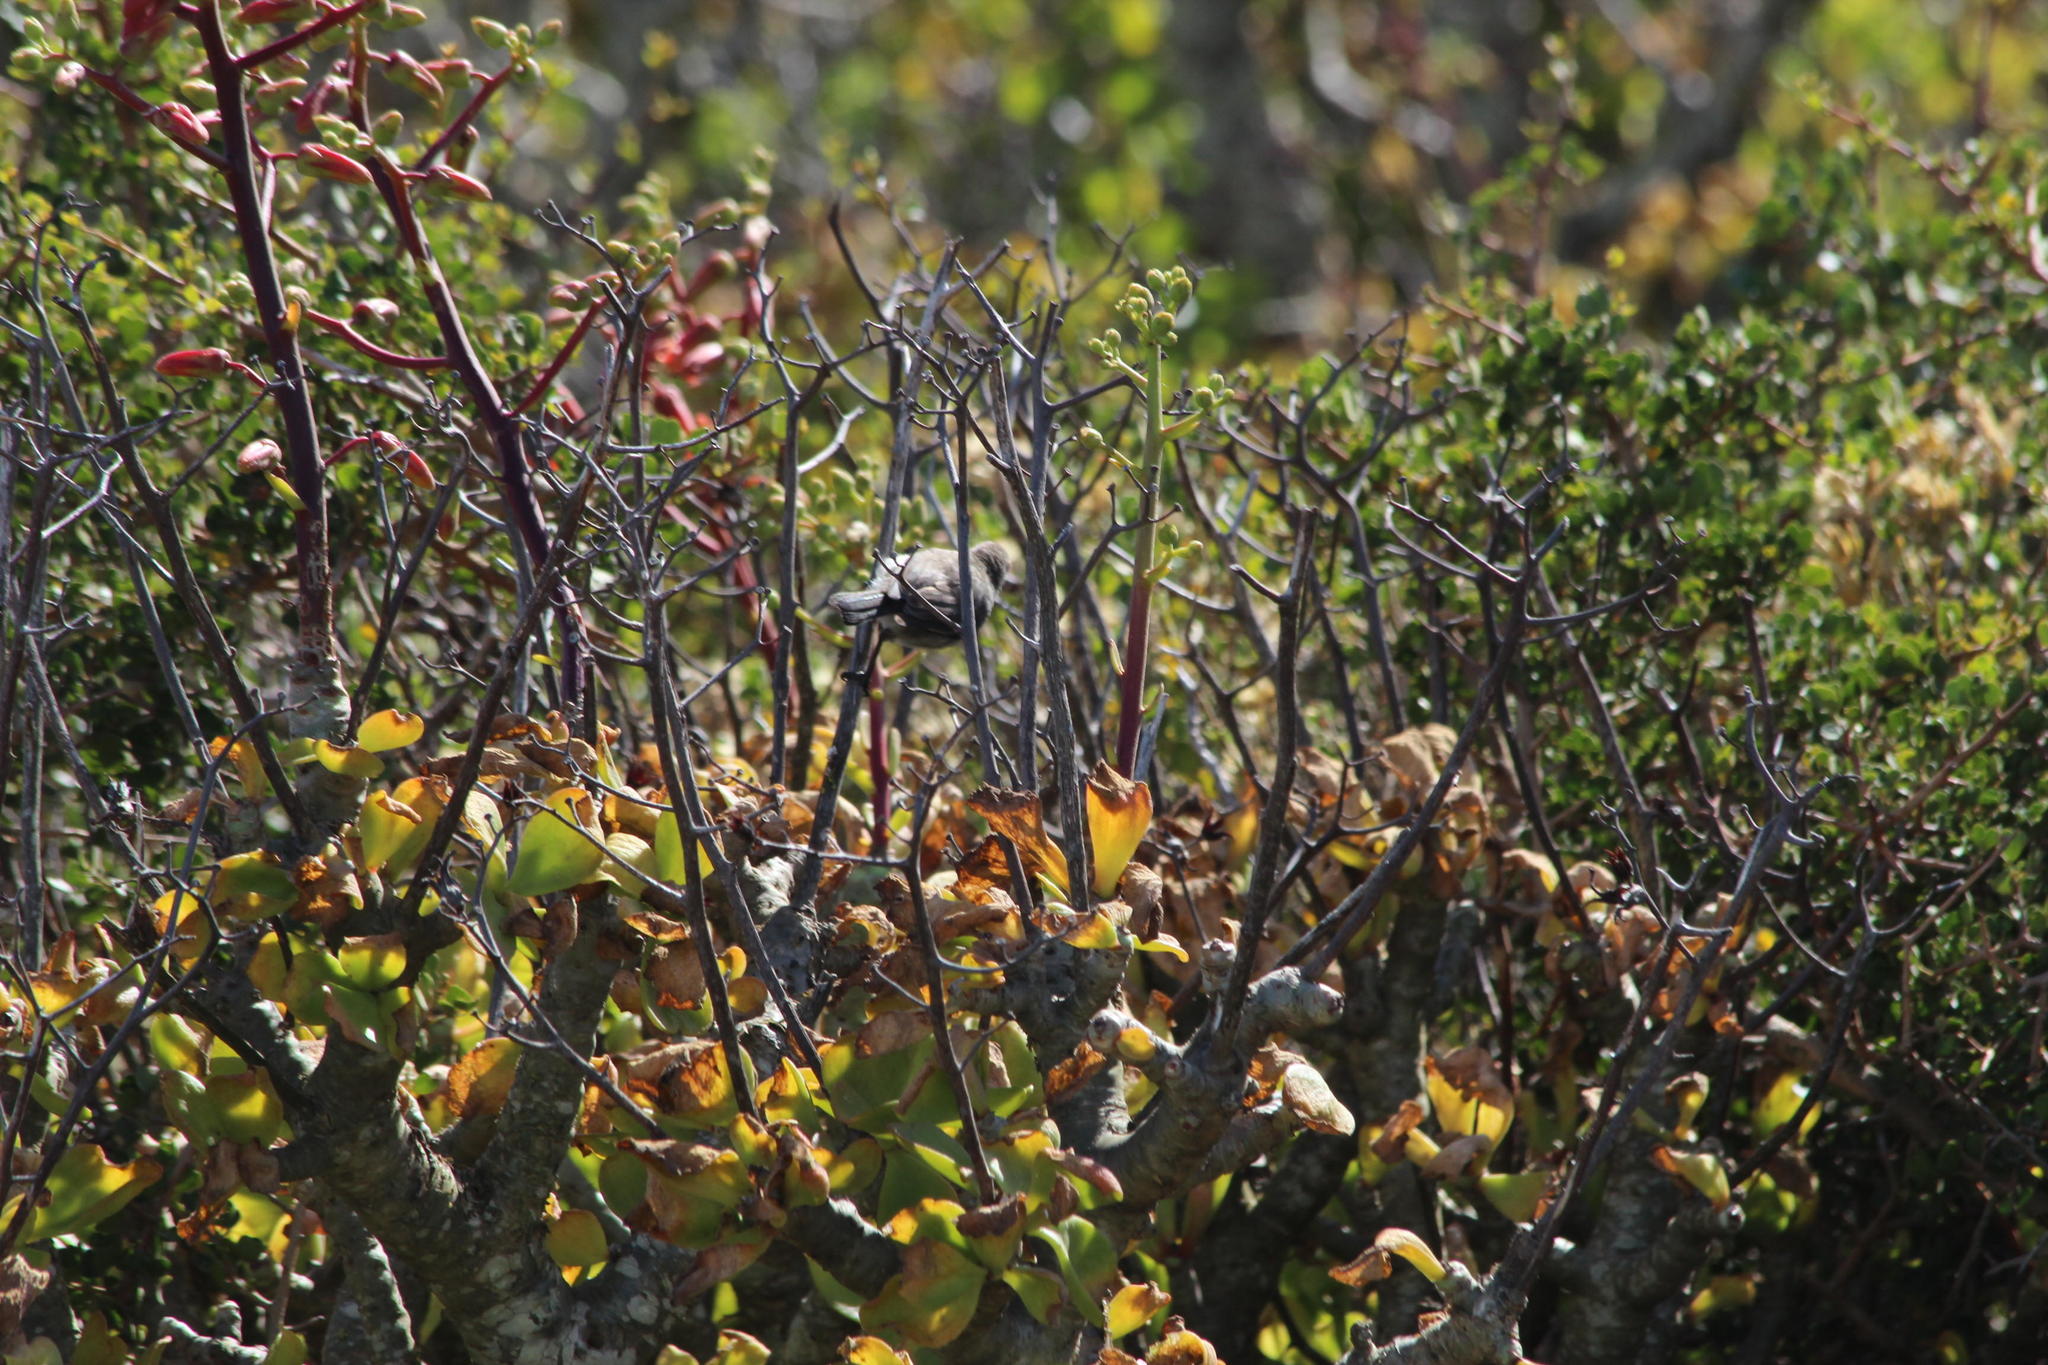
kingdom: Plantae
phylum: Tracheophyta
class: Magnoliopsida
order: Saxifragales
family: Crassulaceae
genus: Tylecodon
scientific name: Tylecodon paniculatus
